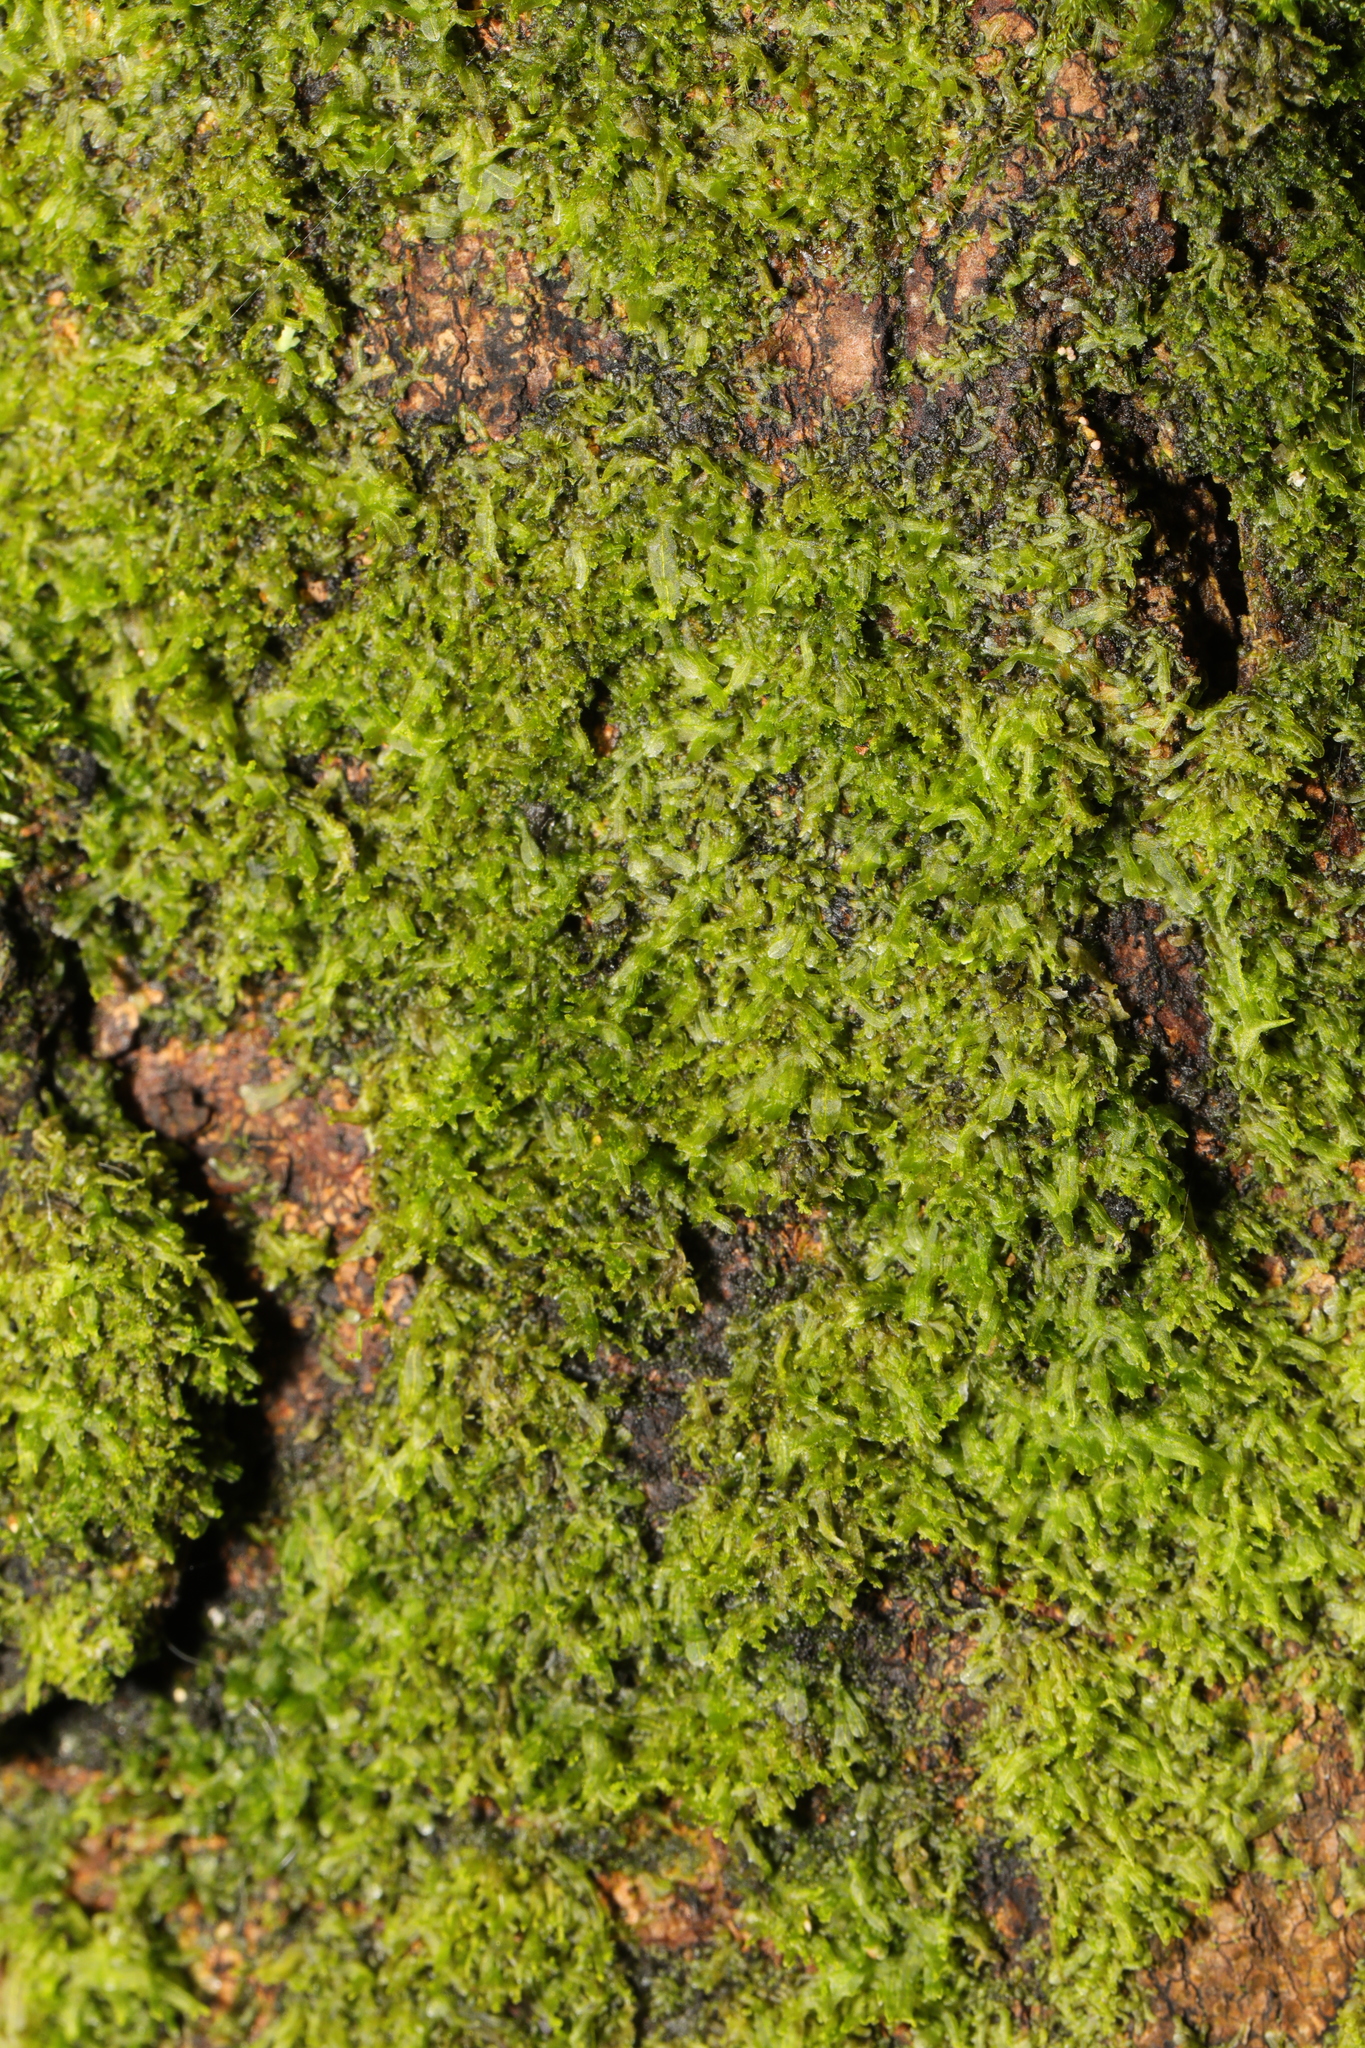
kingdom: Plantae
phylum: Marchantiophyta
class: Jungermanniopsida
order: Metzgeriales
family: Metzgeriaceae
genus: Metzgeria
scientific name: Metzgeria furcata
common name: Forked veilwort
